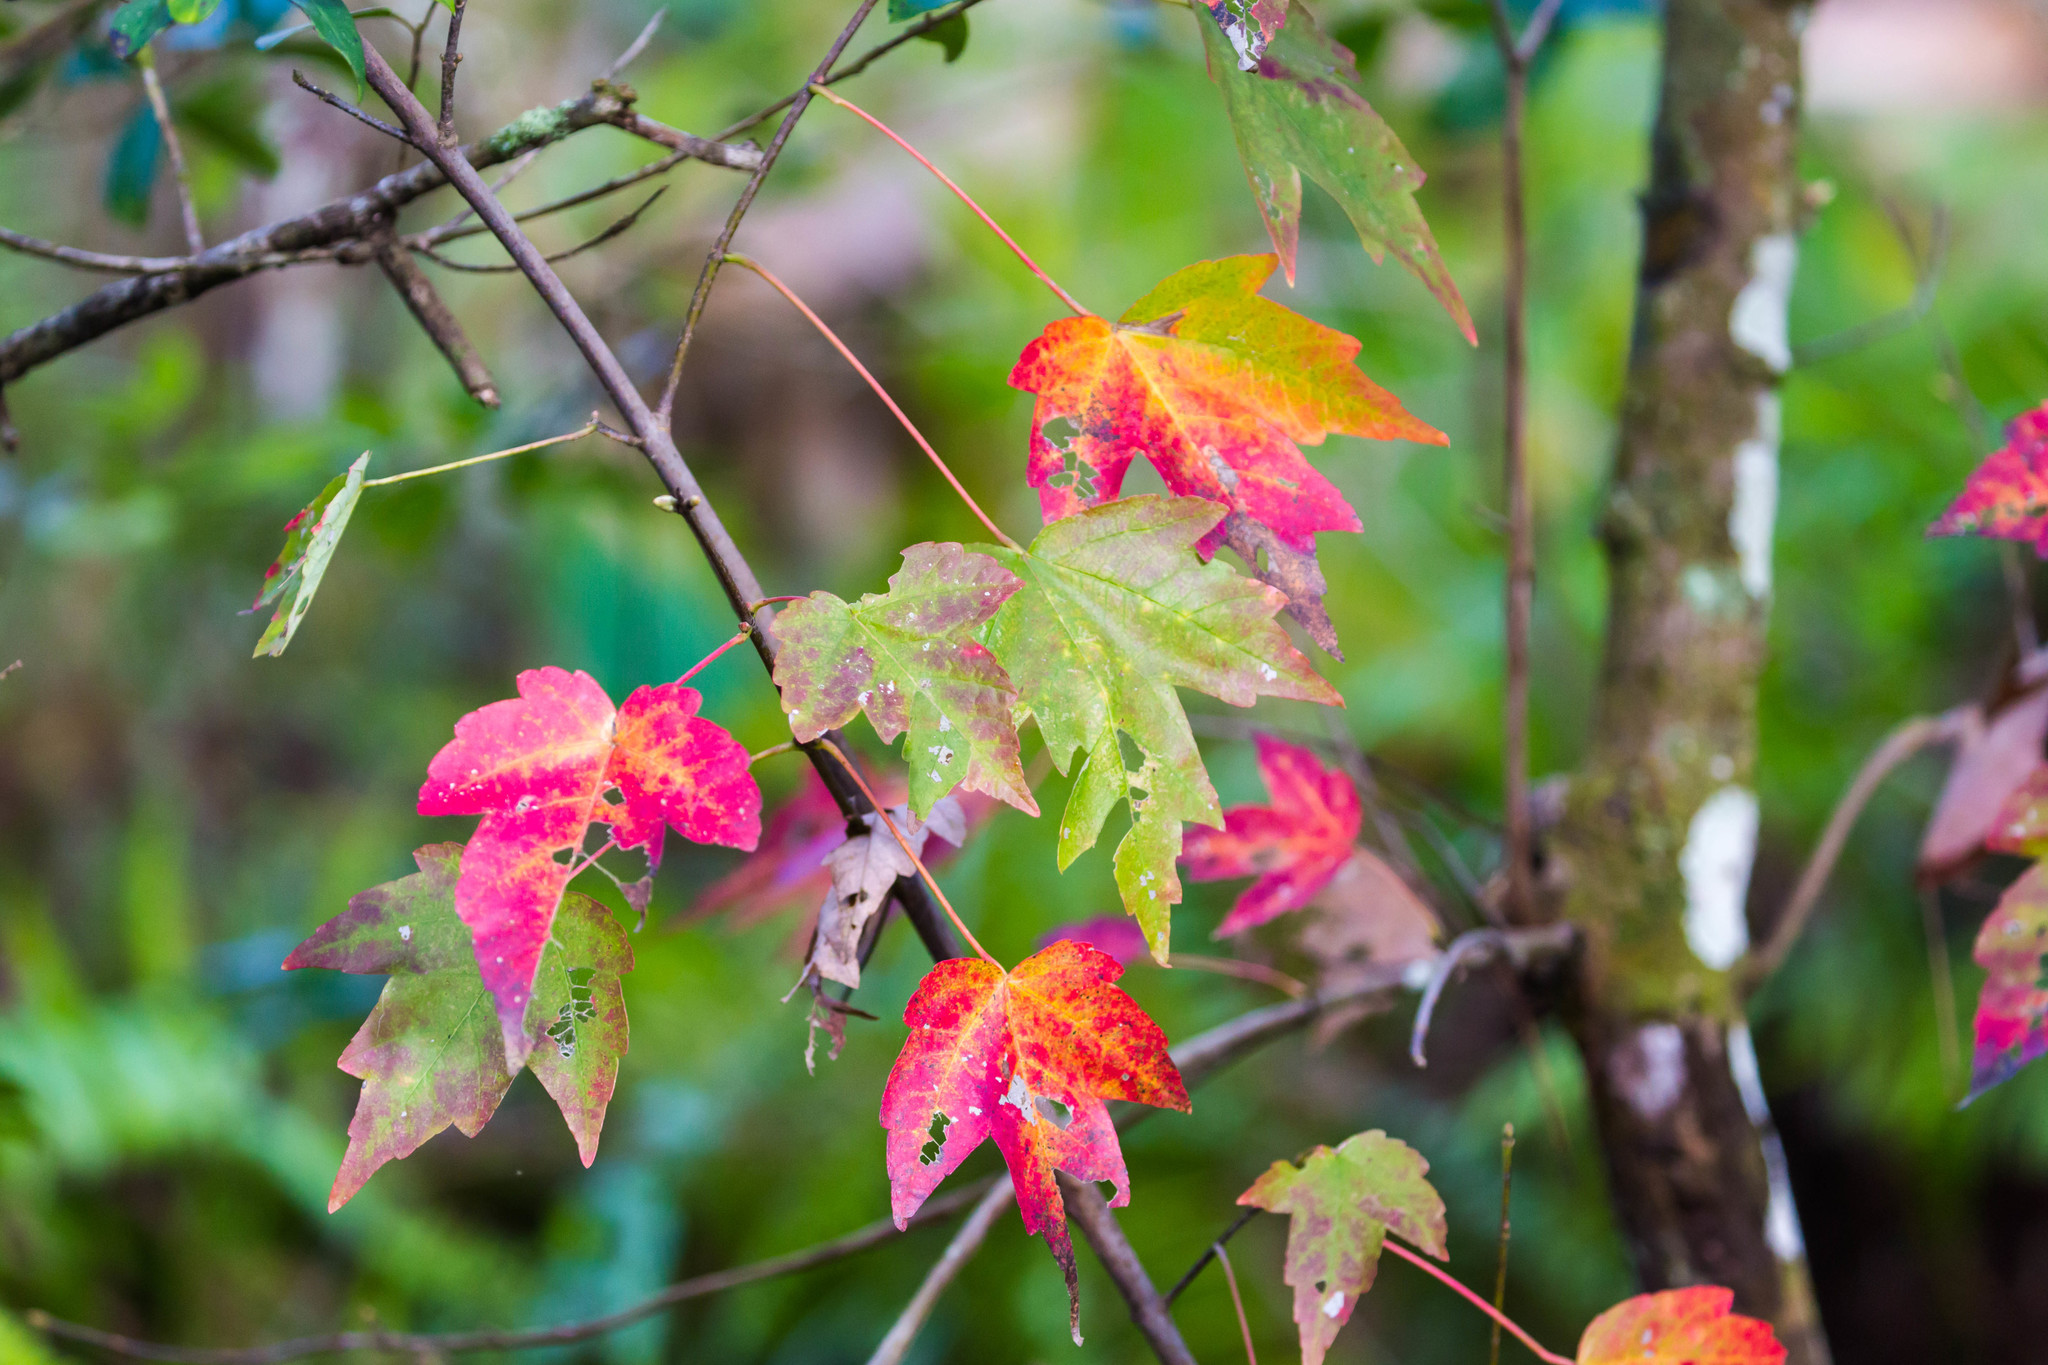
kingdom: Plantae
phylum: Tracheophyta
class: Magnoliopsida
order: Sapindales
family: Sapindaceae
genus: Acer
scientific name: Acer rubrum
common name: Red maple
